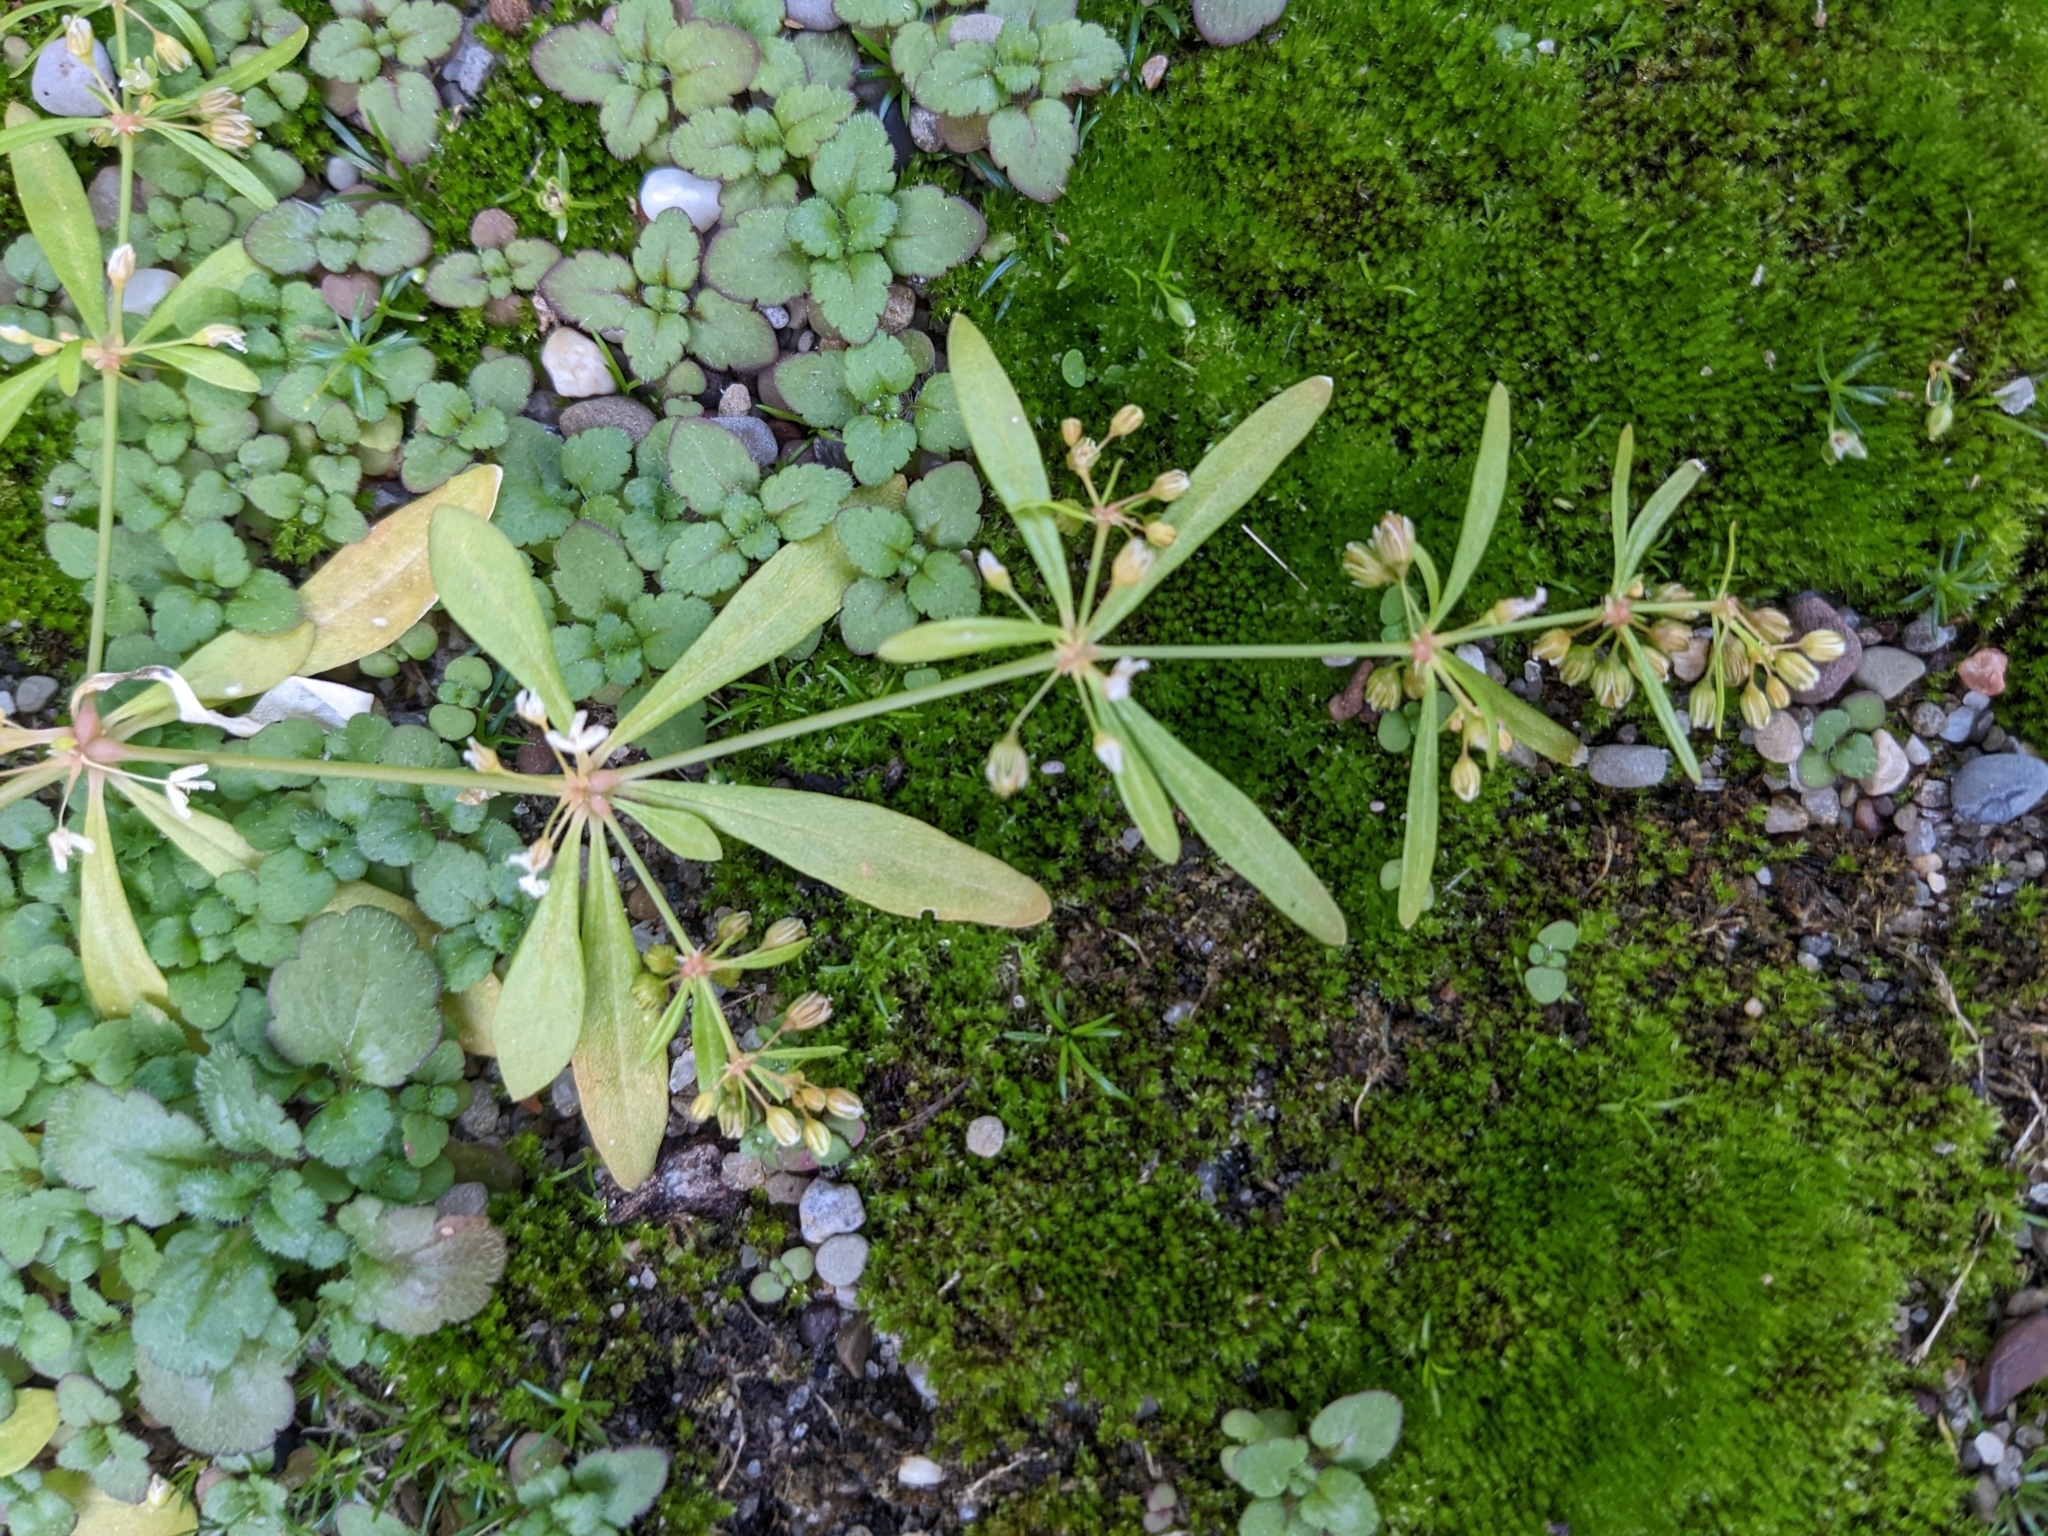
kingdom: Plantae
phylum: Tracheophyta
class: Magnoliopsida
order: Caryophyllales
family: Molluginaceae
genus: Mollugo
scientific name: Mollugo verticillata
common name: Green carpetweed
